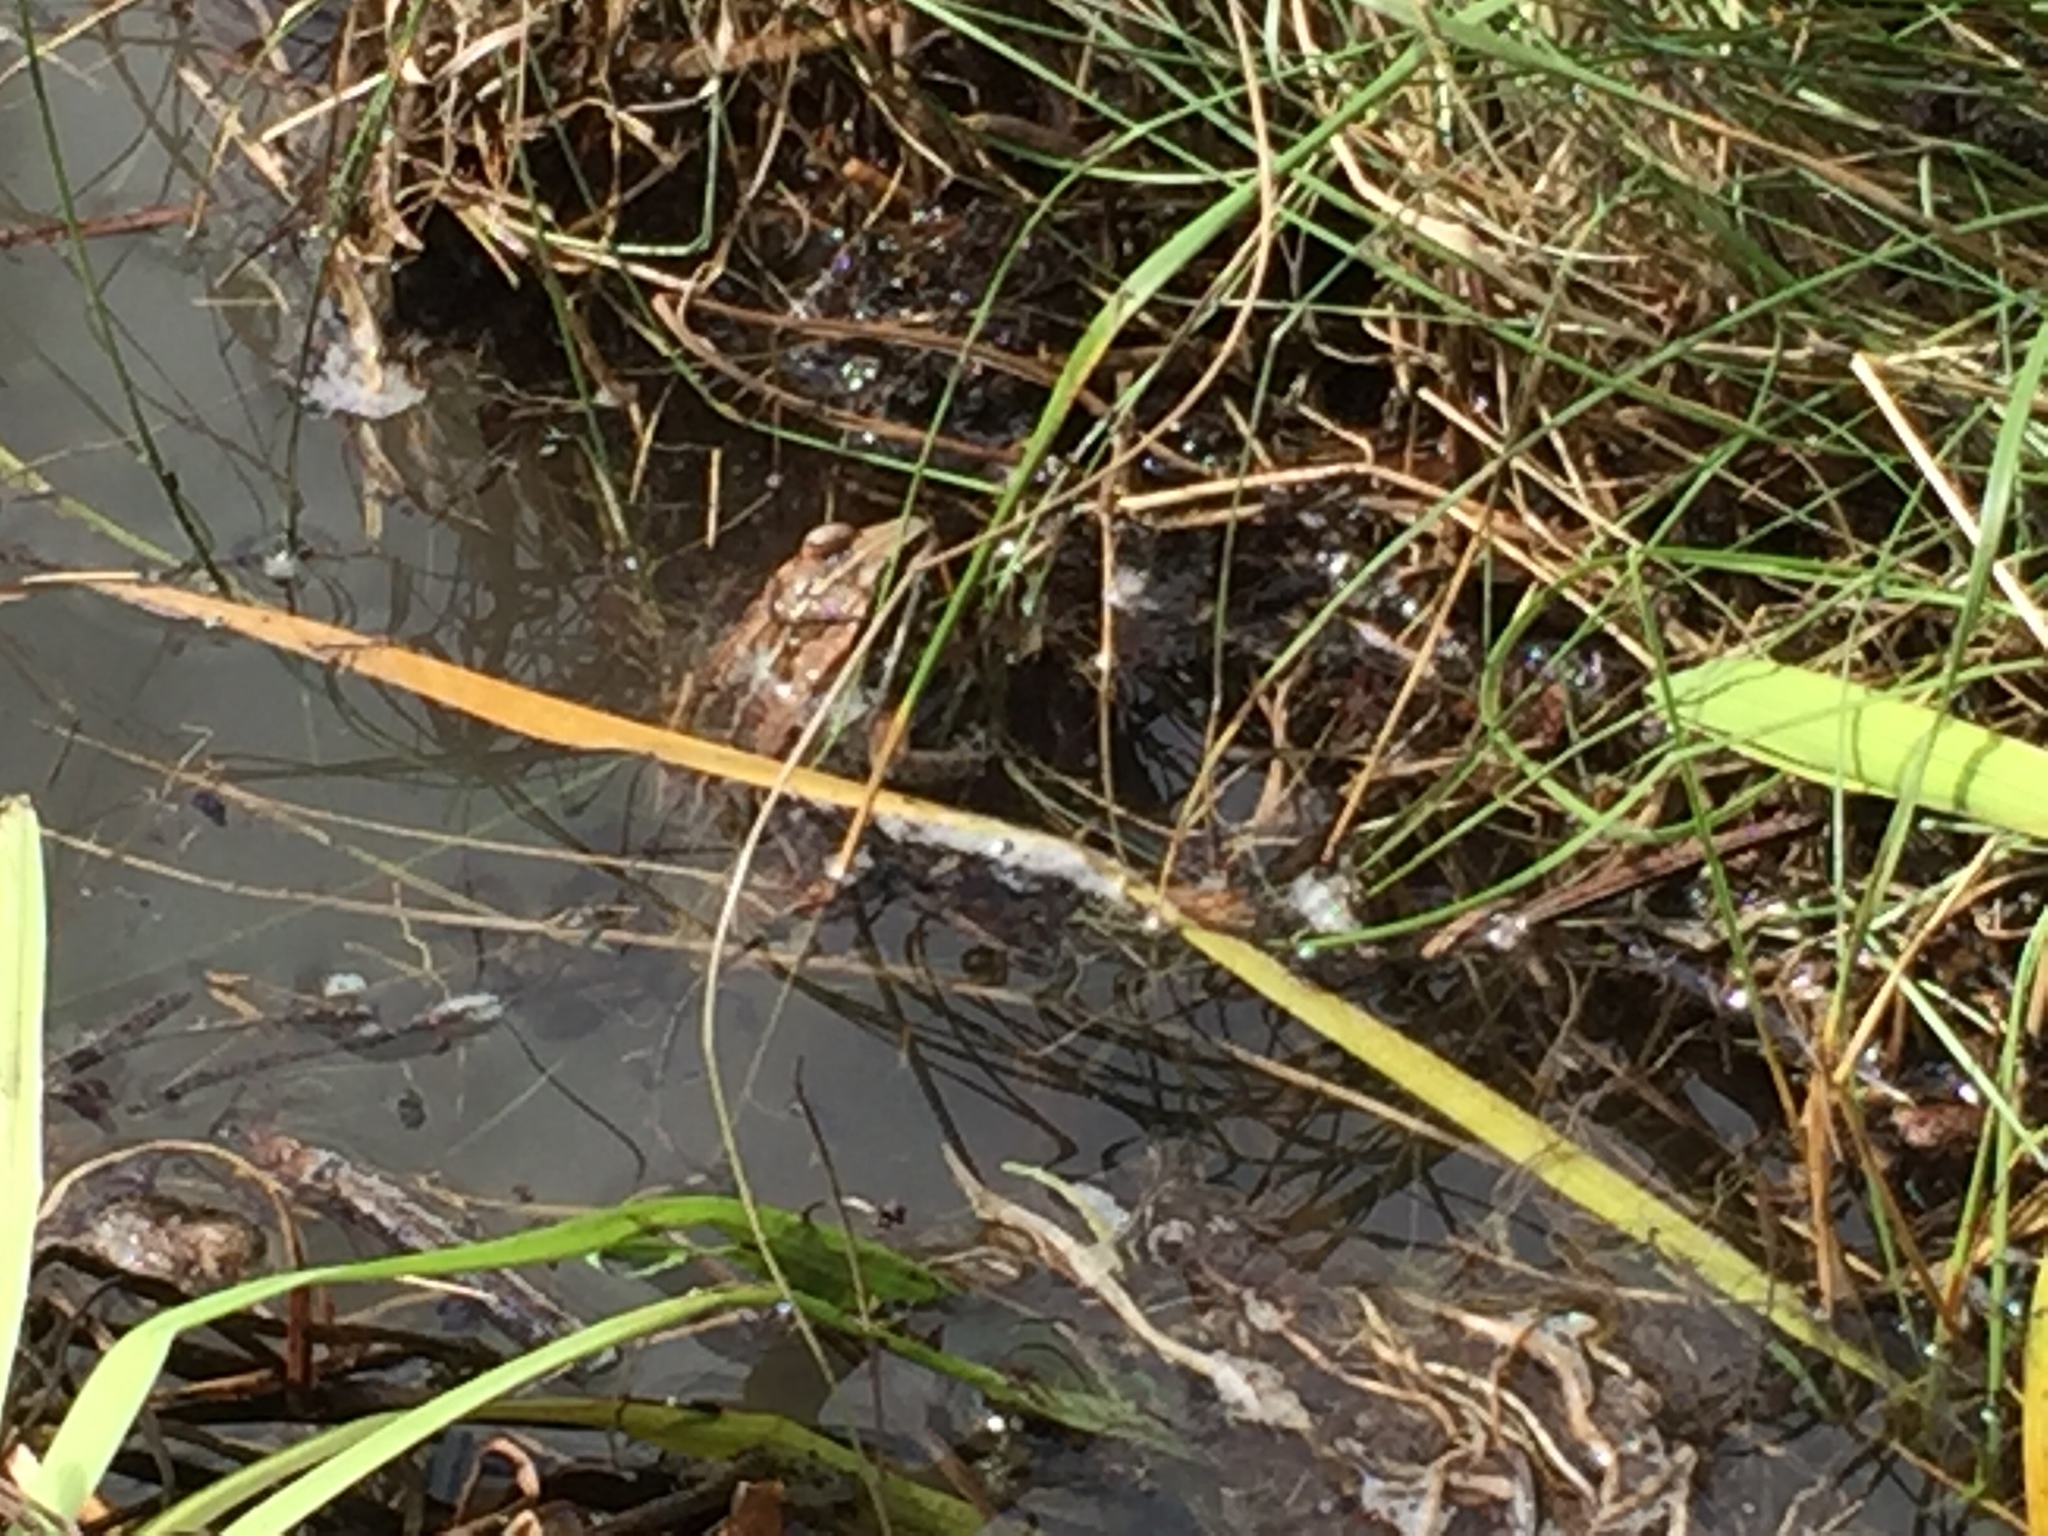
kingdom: Animalia
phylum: Chordata
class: Amphibia
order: Anura
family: Ranidae
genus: Lithobates
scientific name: Lithobates sylvaticus
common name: Wood frog
